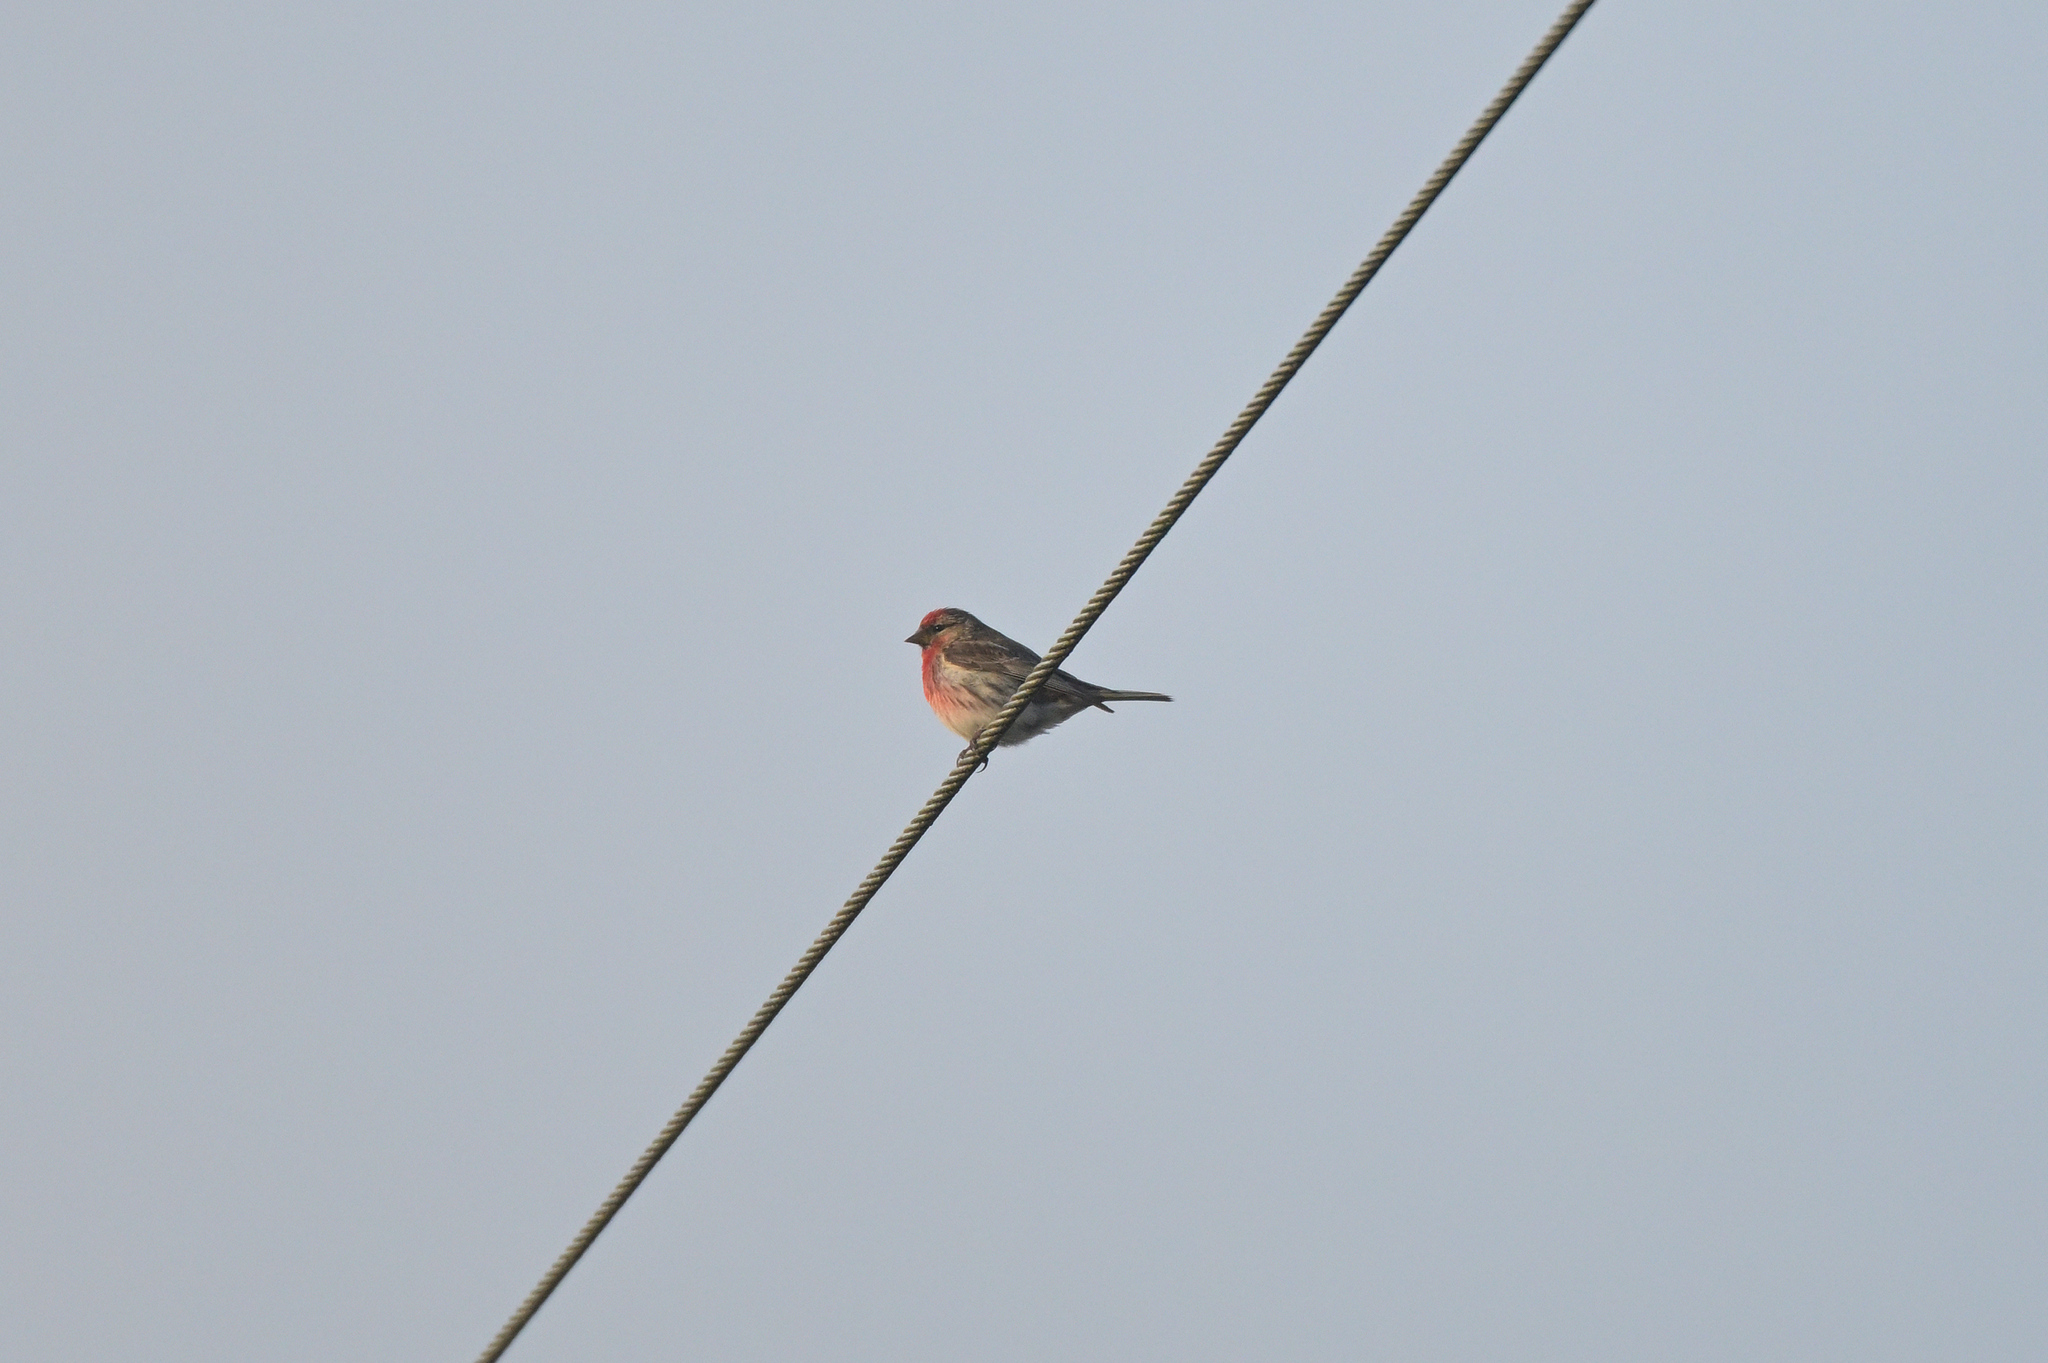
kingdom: Animalia
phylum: Chordata
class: Aves
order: Passeriformes
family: Fringillidae
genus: Acanthis
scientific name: Acanthis flammea
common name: Common redpoll
